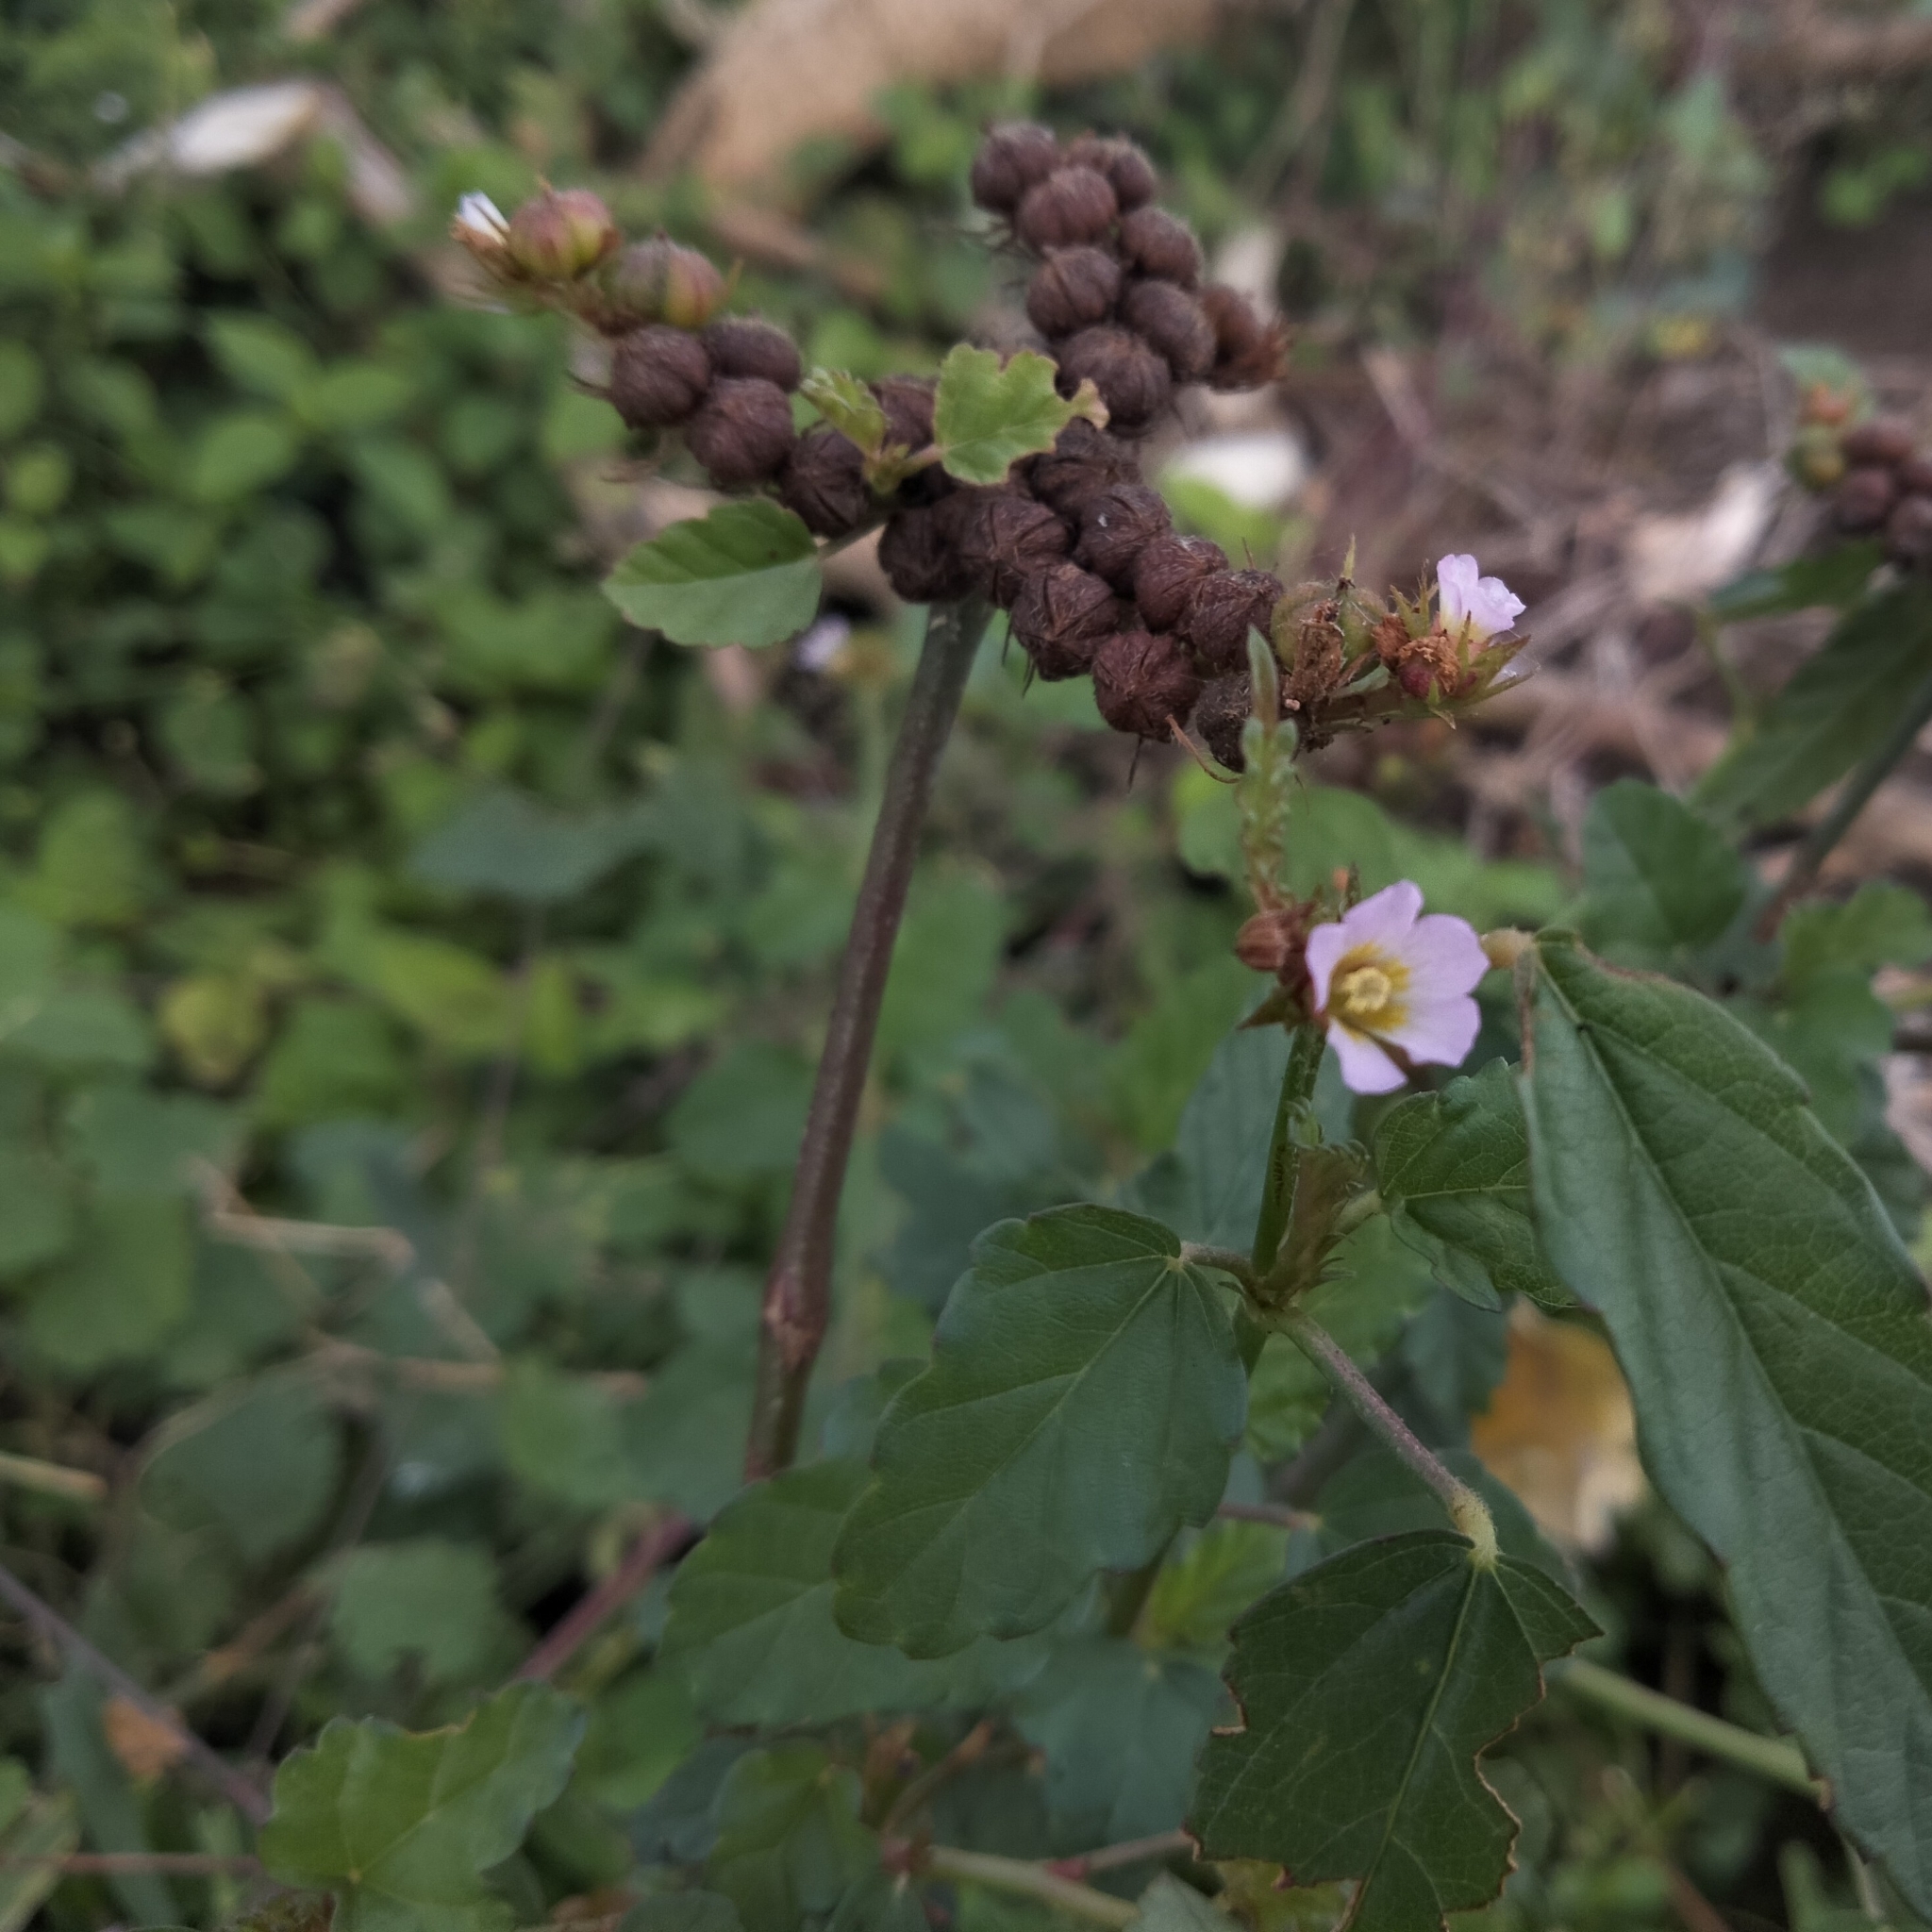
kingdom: Plantae
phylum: Tracheophyta
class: Magnoliopsida
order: Malvales
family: Malvaceae
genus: Melochia
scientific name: Melochia corchorifolia
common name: Chocolateweed
